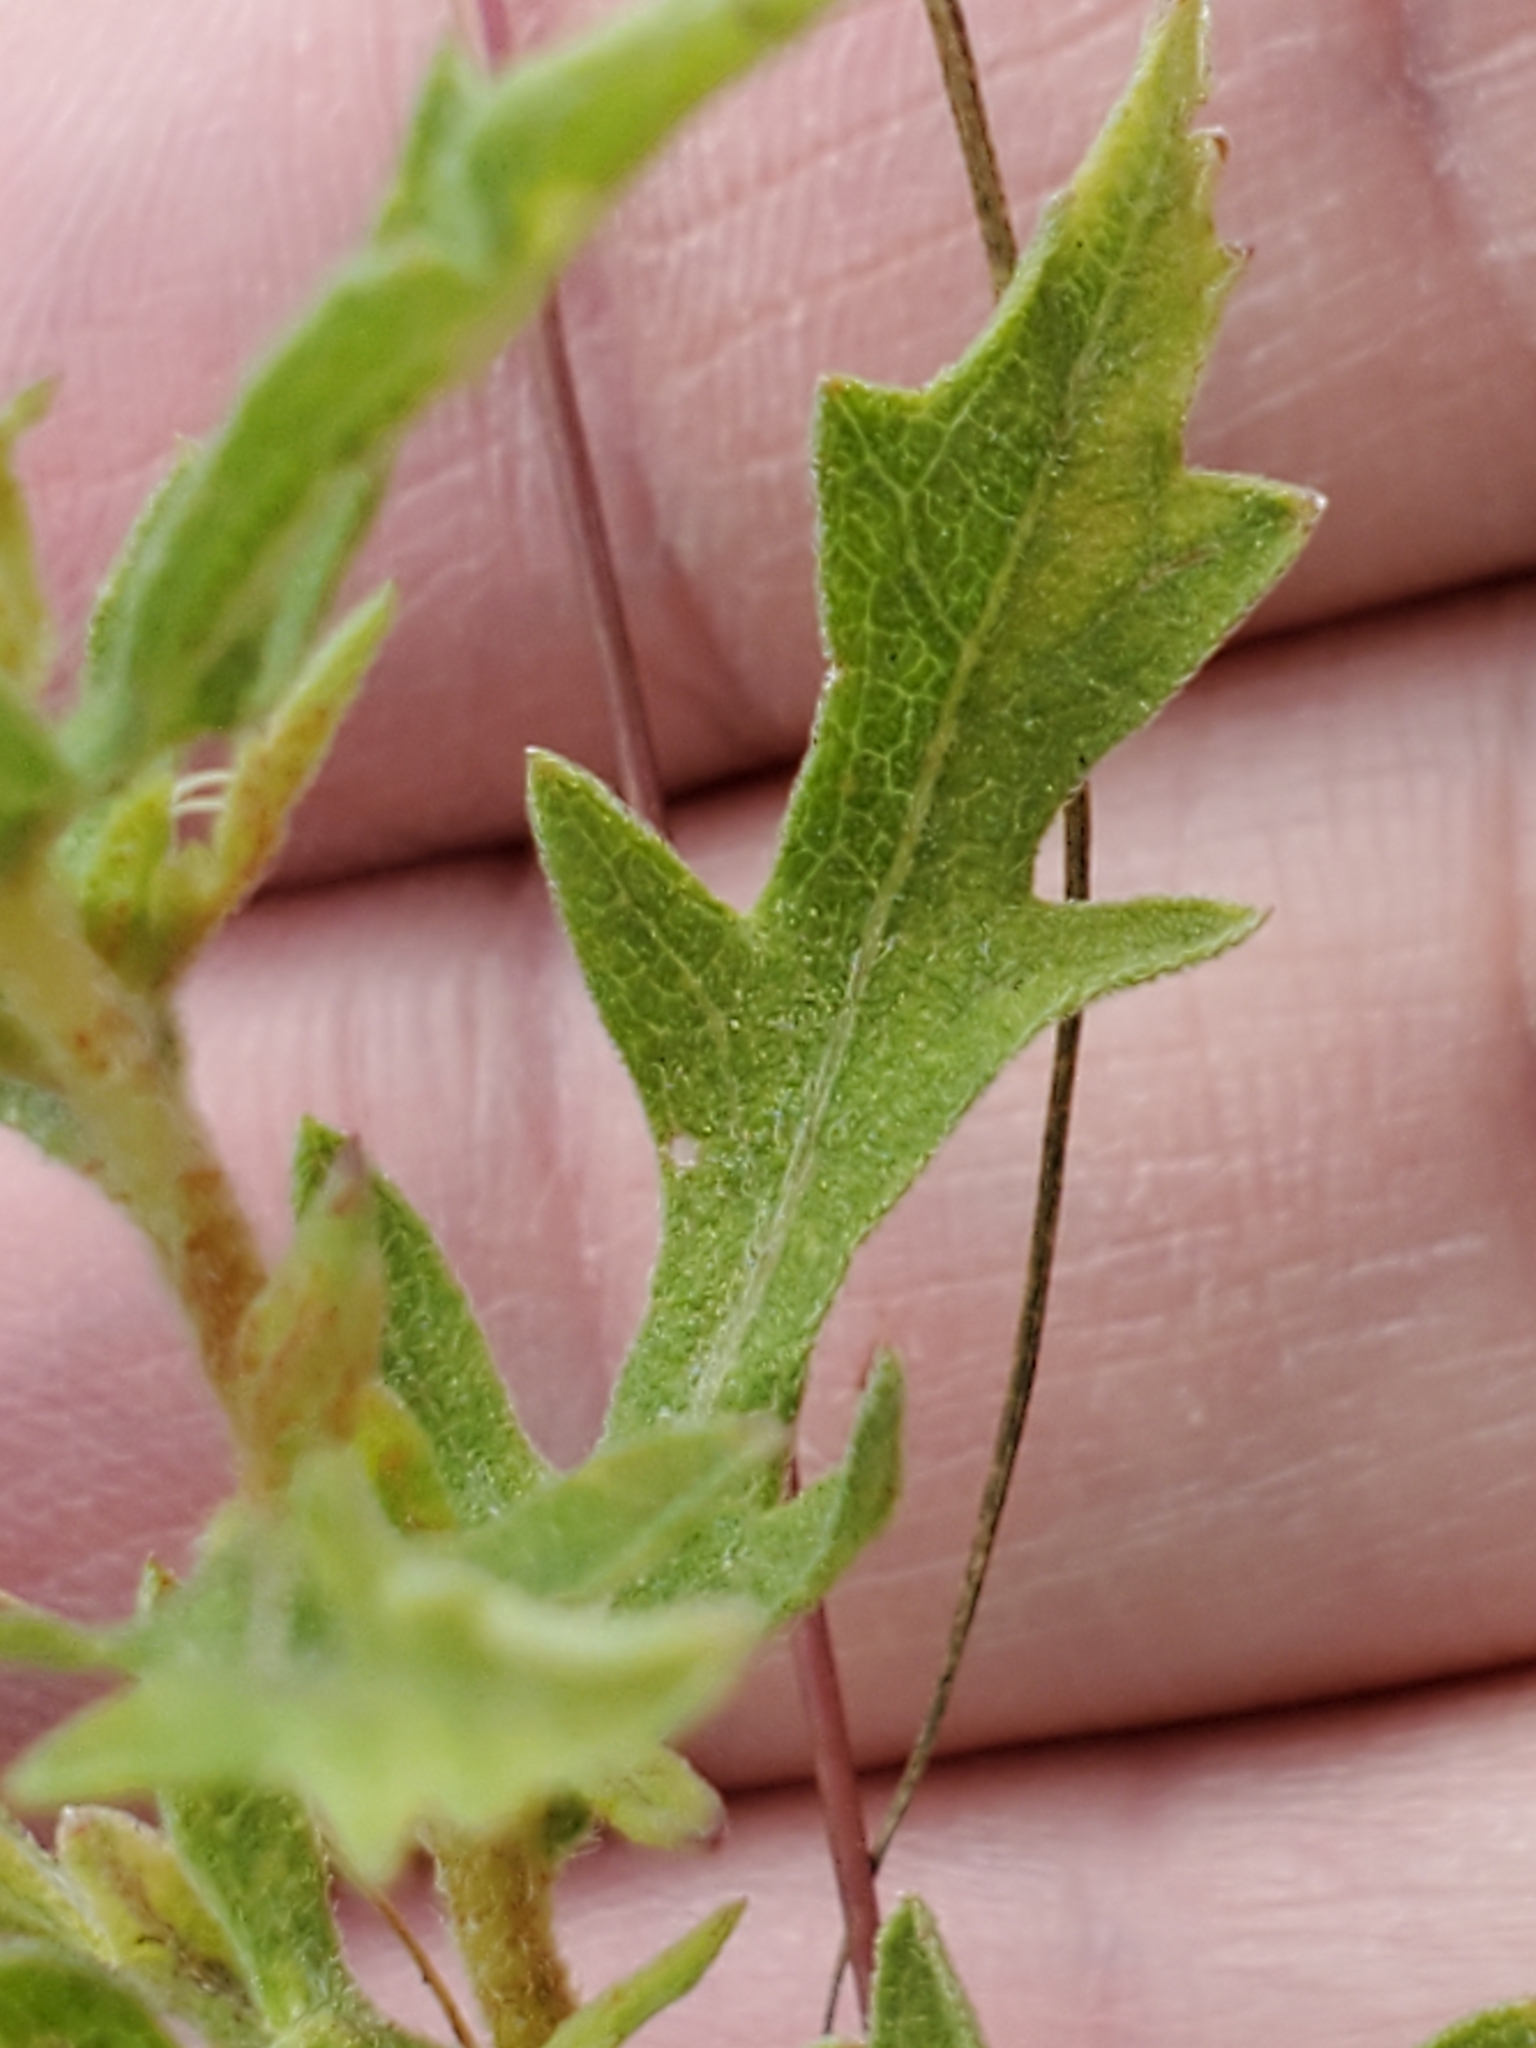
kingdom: Plantae
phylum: Tracheophyta
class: Magnoliopsida
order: Asterales
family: Asteraceae
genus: Ambrosia
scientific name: Ambrosia psilostachya
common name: Perennial ragweed
